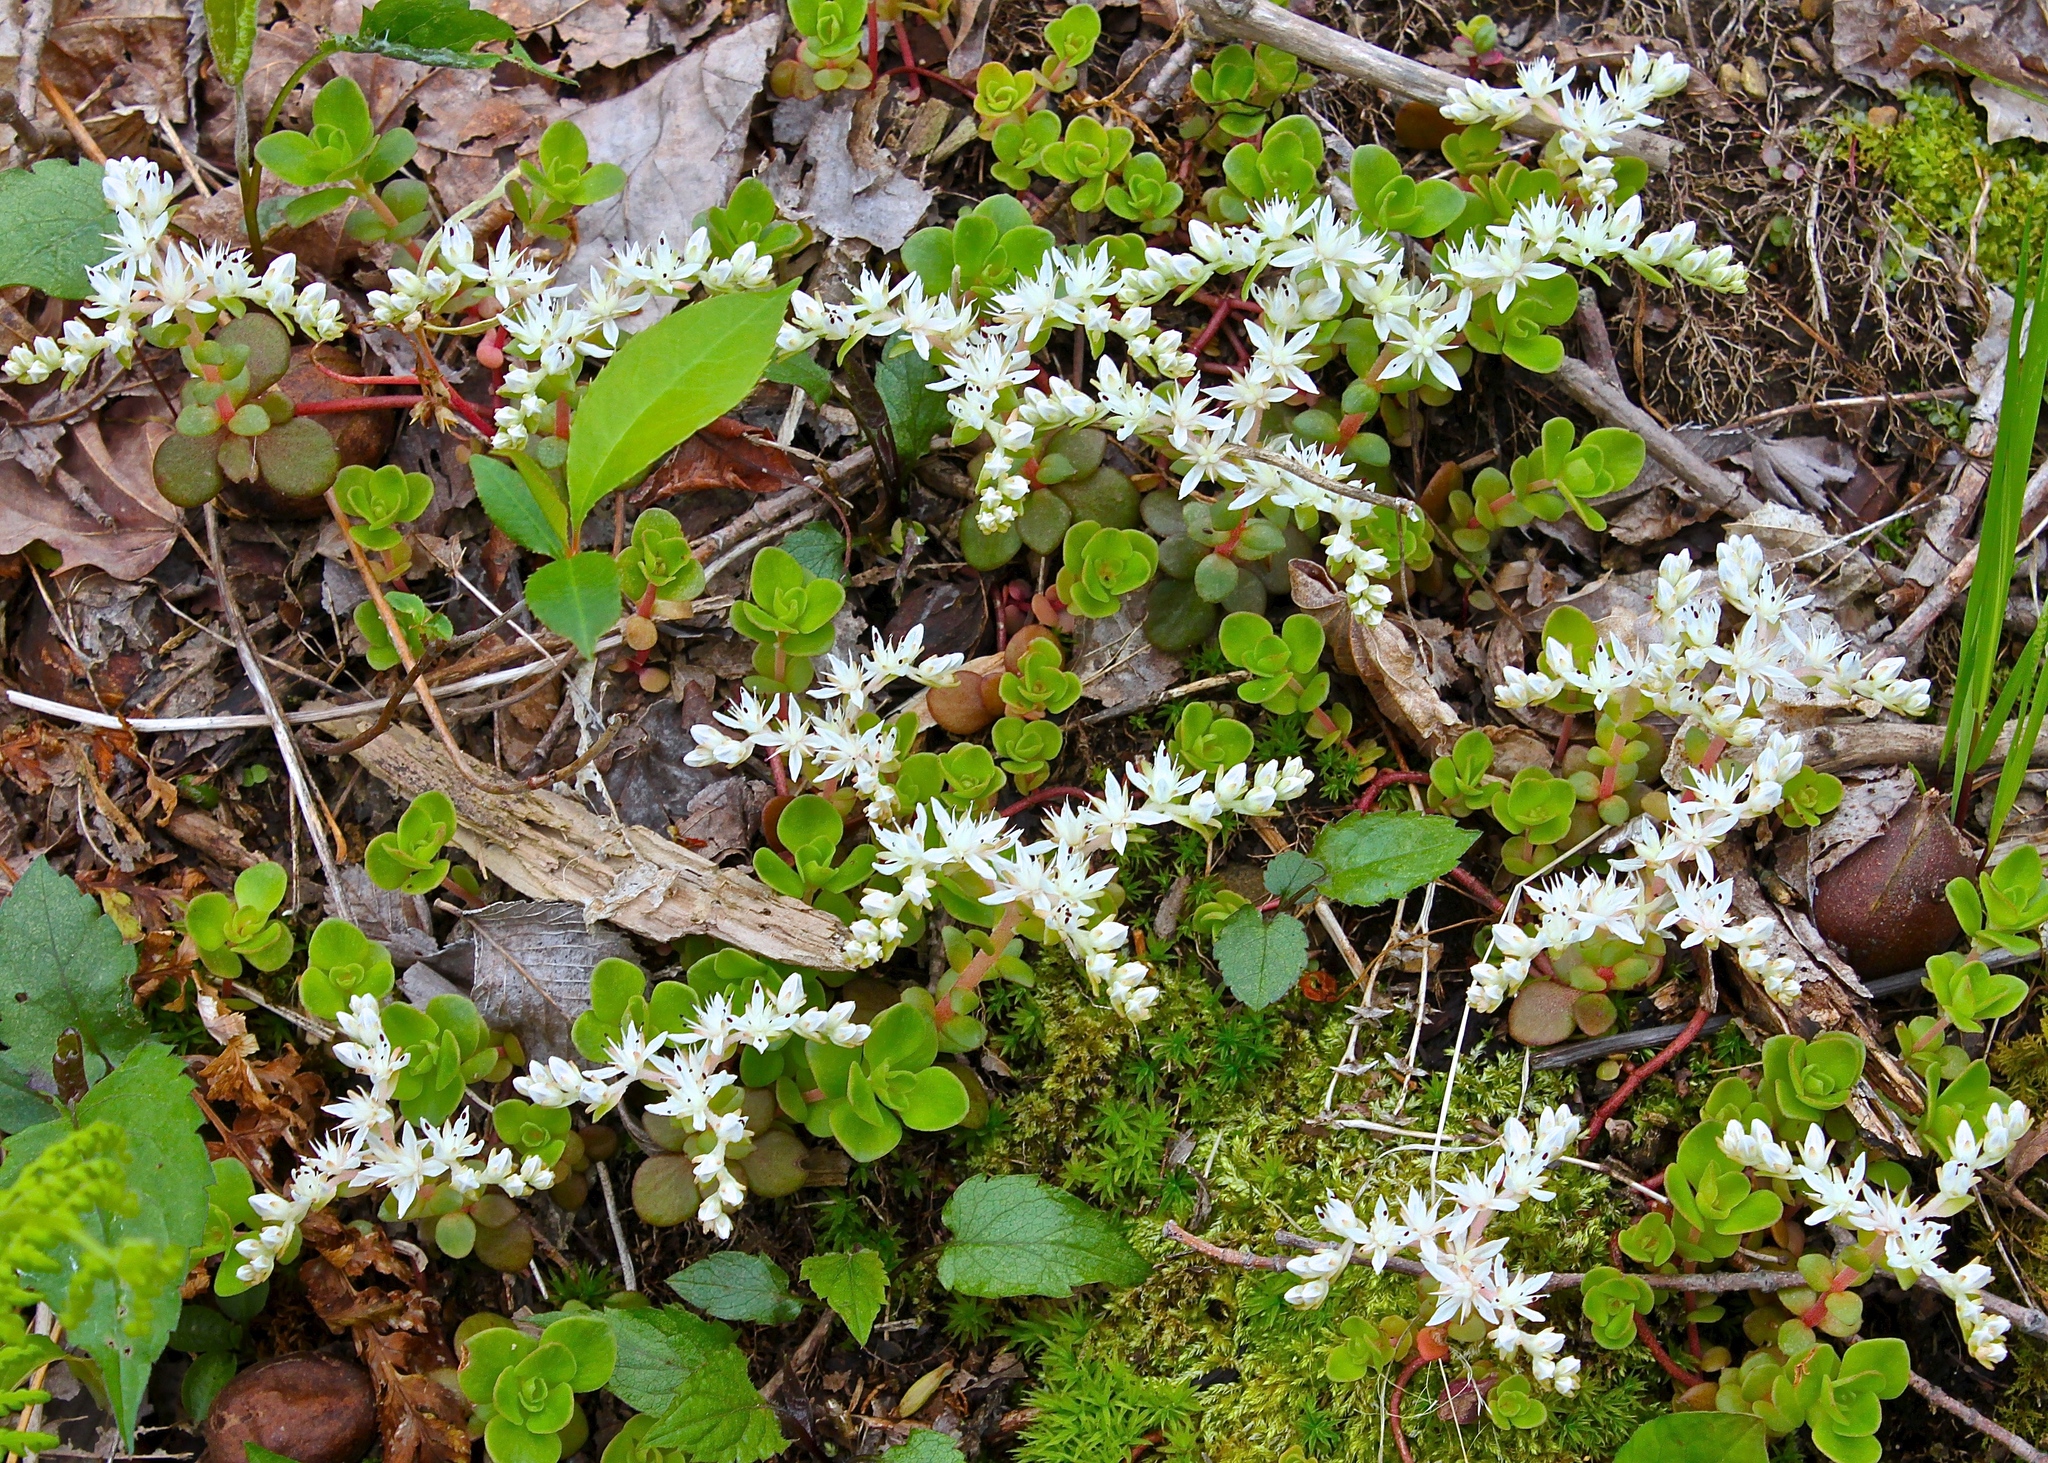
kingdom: Plantae
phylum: Tracheophyta
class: Magnoliopsida
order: Saxifragales
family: Crassulaceae
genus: Sedum
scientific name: Sedum ternatum
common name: Wild stonecrop
